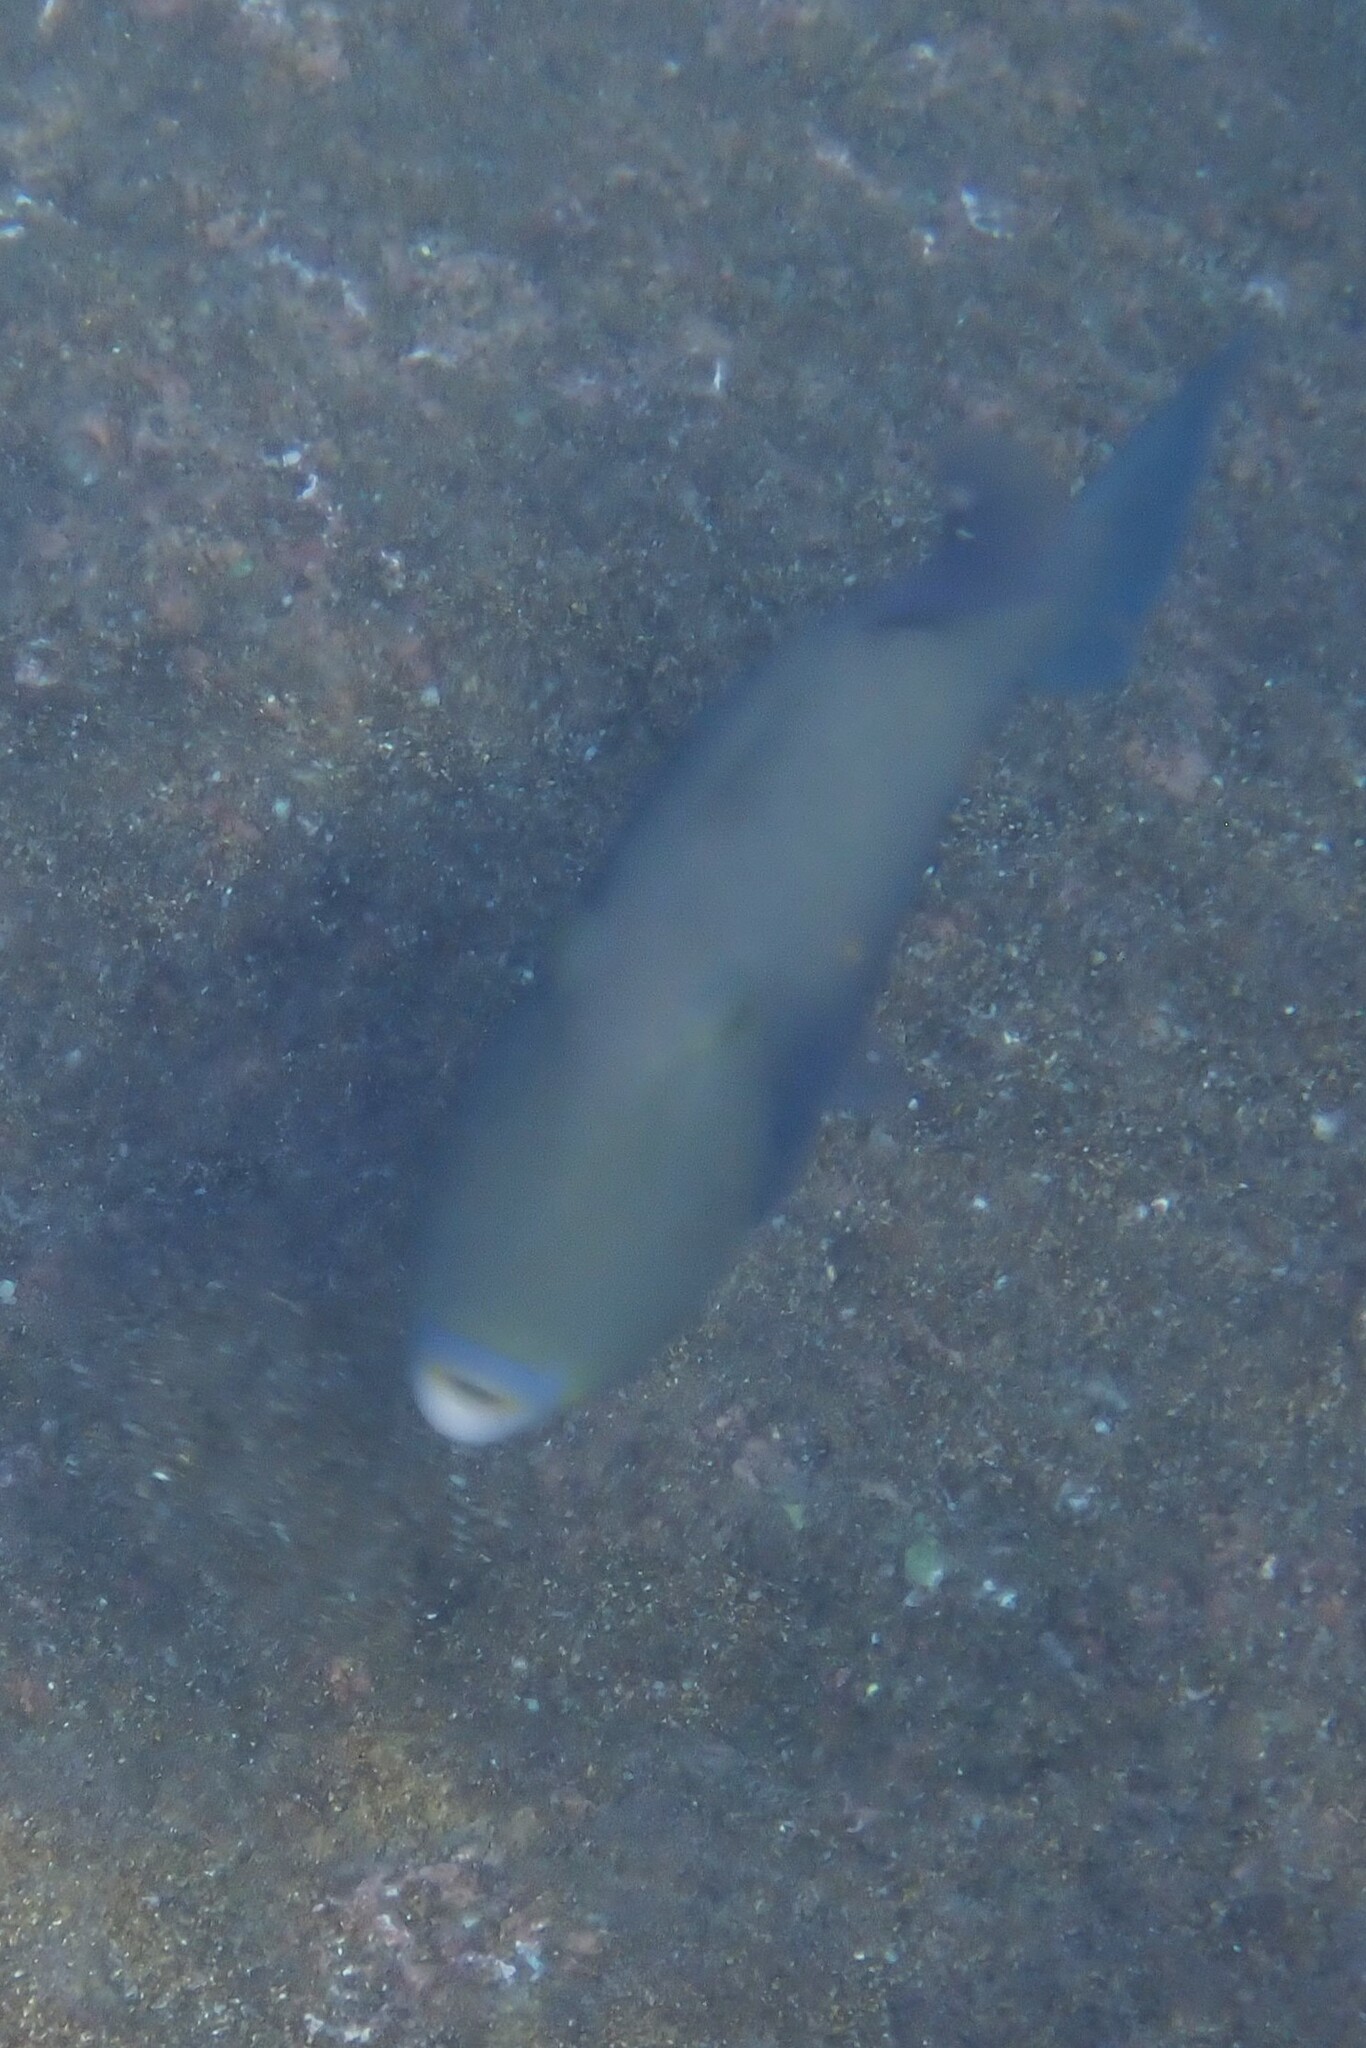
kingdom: Animalia
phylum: Chordata
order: Tetraodontiformes
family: Balistidae
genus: Sufflamen
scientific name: Sufflamen verres
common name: Orangeside triggerfish
